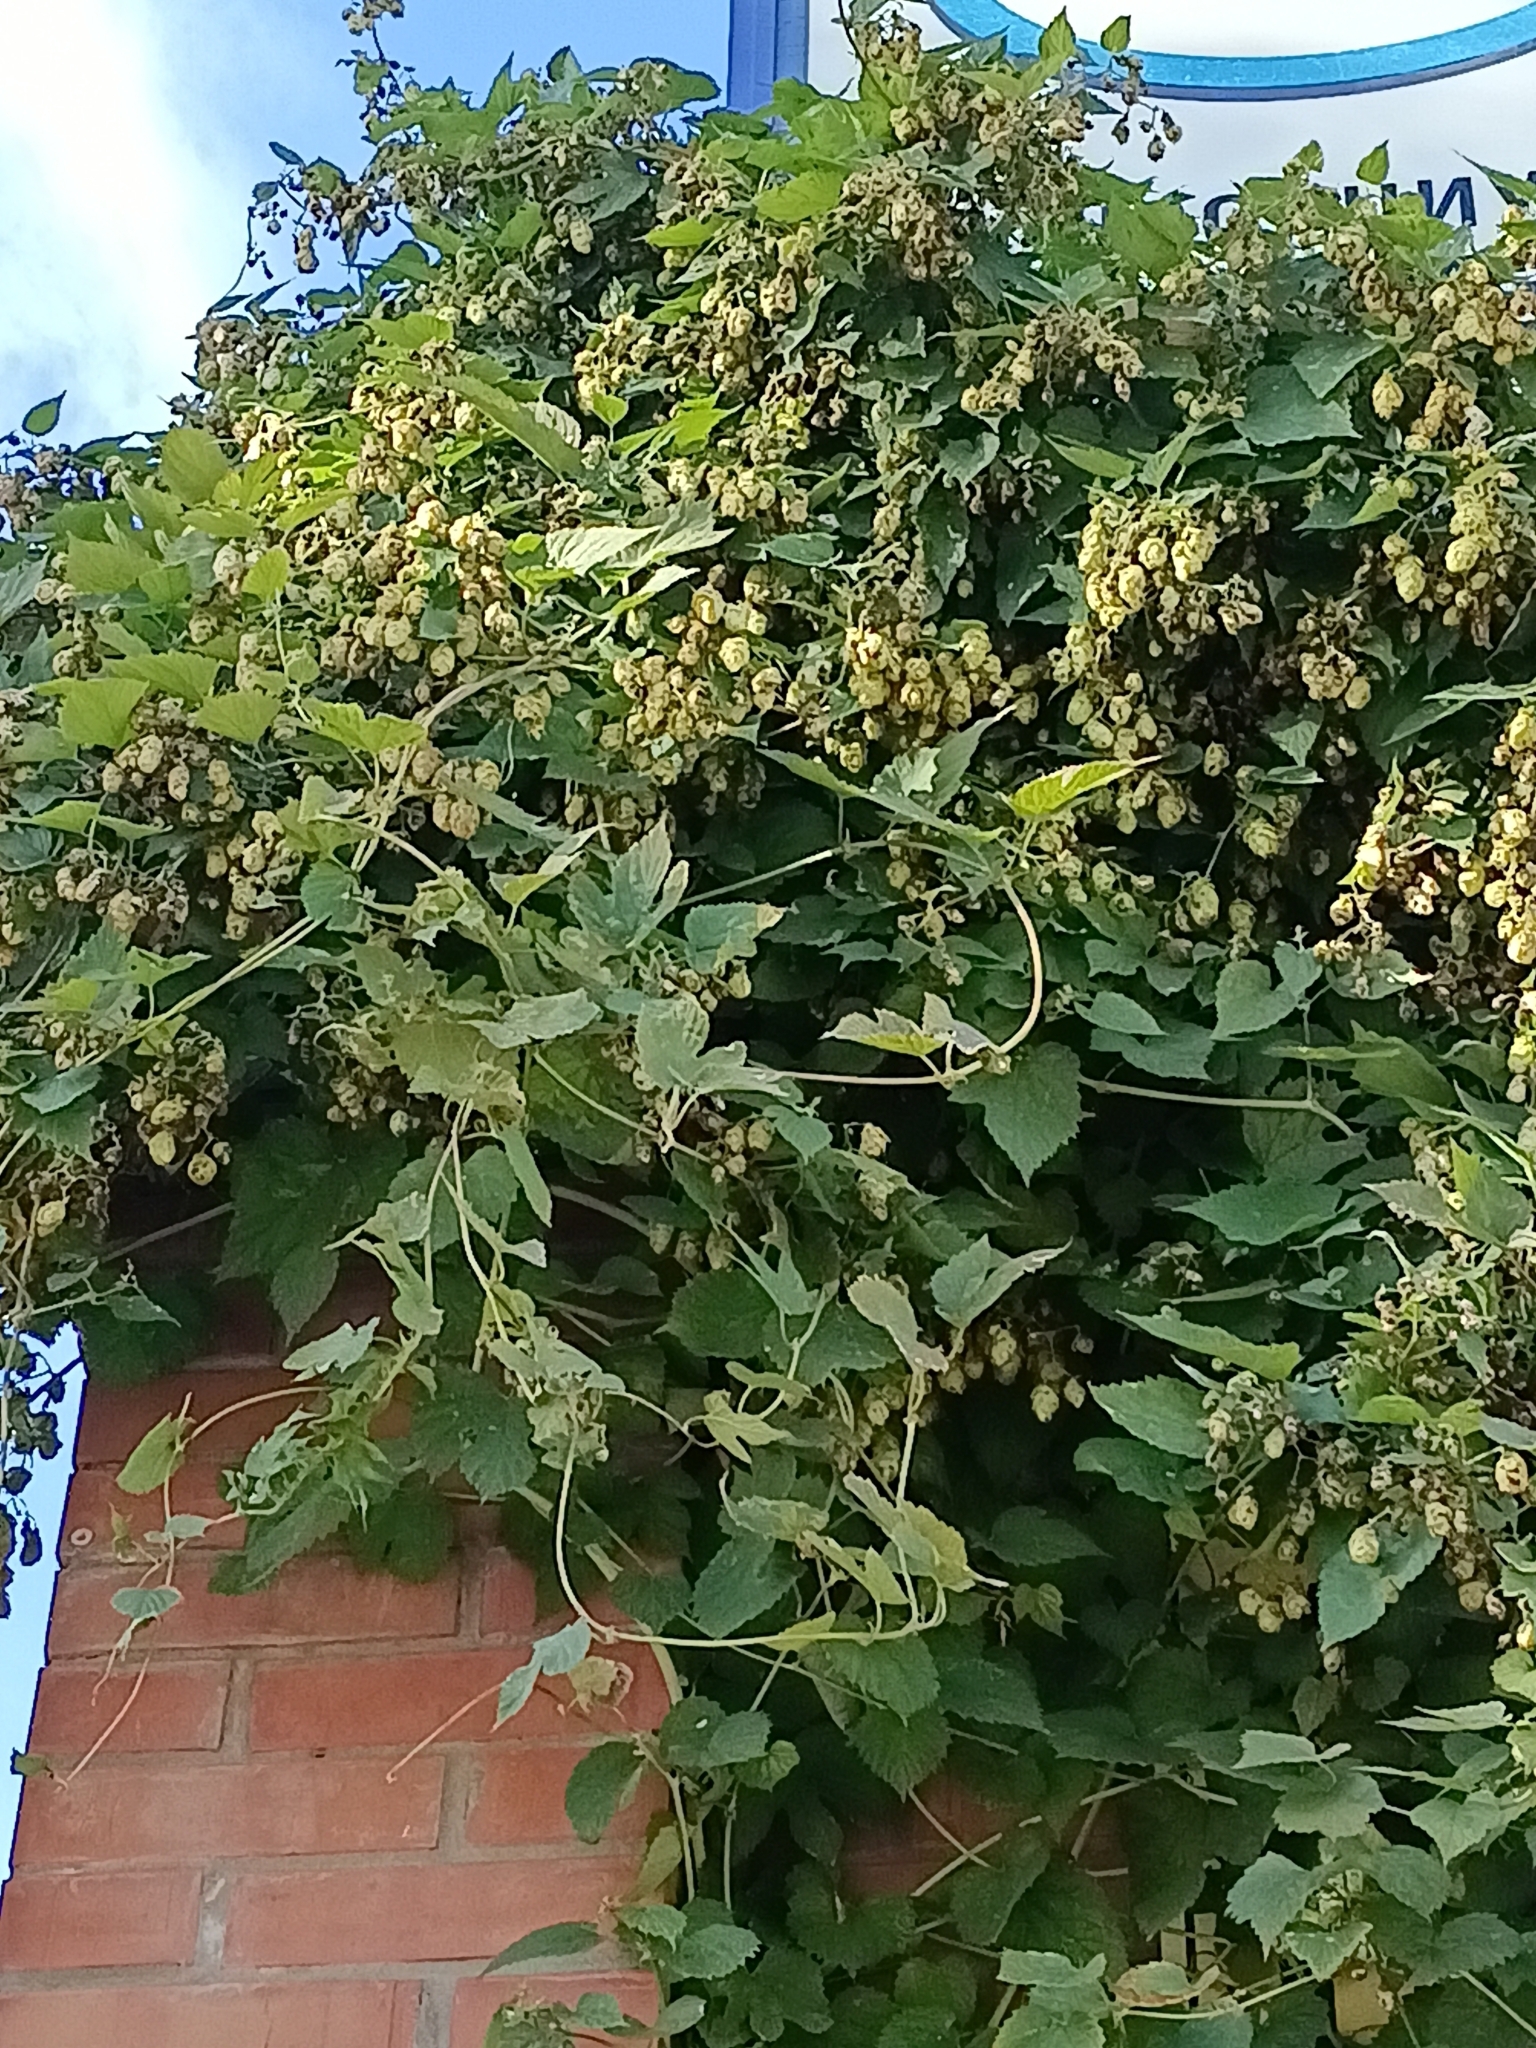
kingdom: Plantae
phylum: Tracheophyta
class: Magnoliopsida
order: Rosales
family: Cannabaceae
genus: Humulus
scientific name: Humulus lupulus
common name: Hop
